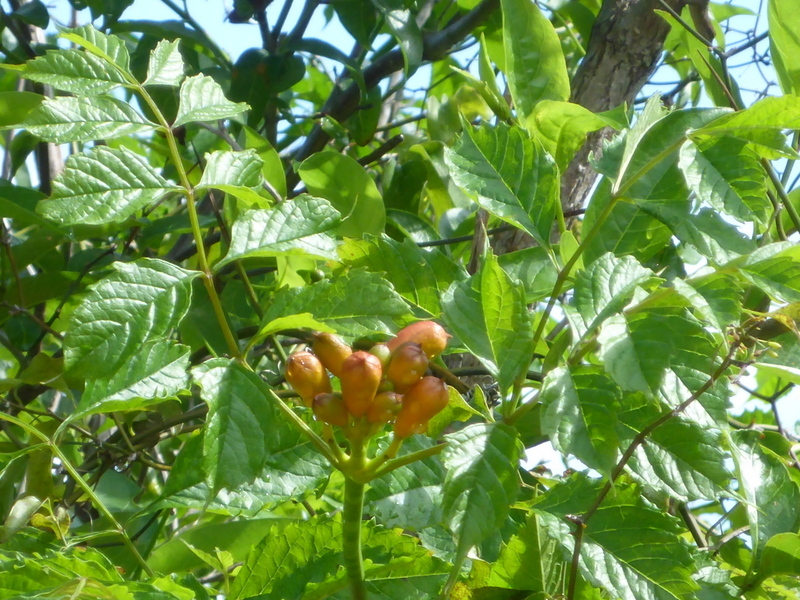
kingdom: Plantae
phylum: Tracheophyta
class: Magnoliopsida
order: Lamiales
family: Bignoniaceae
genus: Campsis
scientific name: Campsis radicans
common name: Trumpet-creeper
